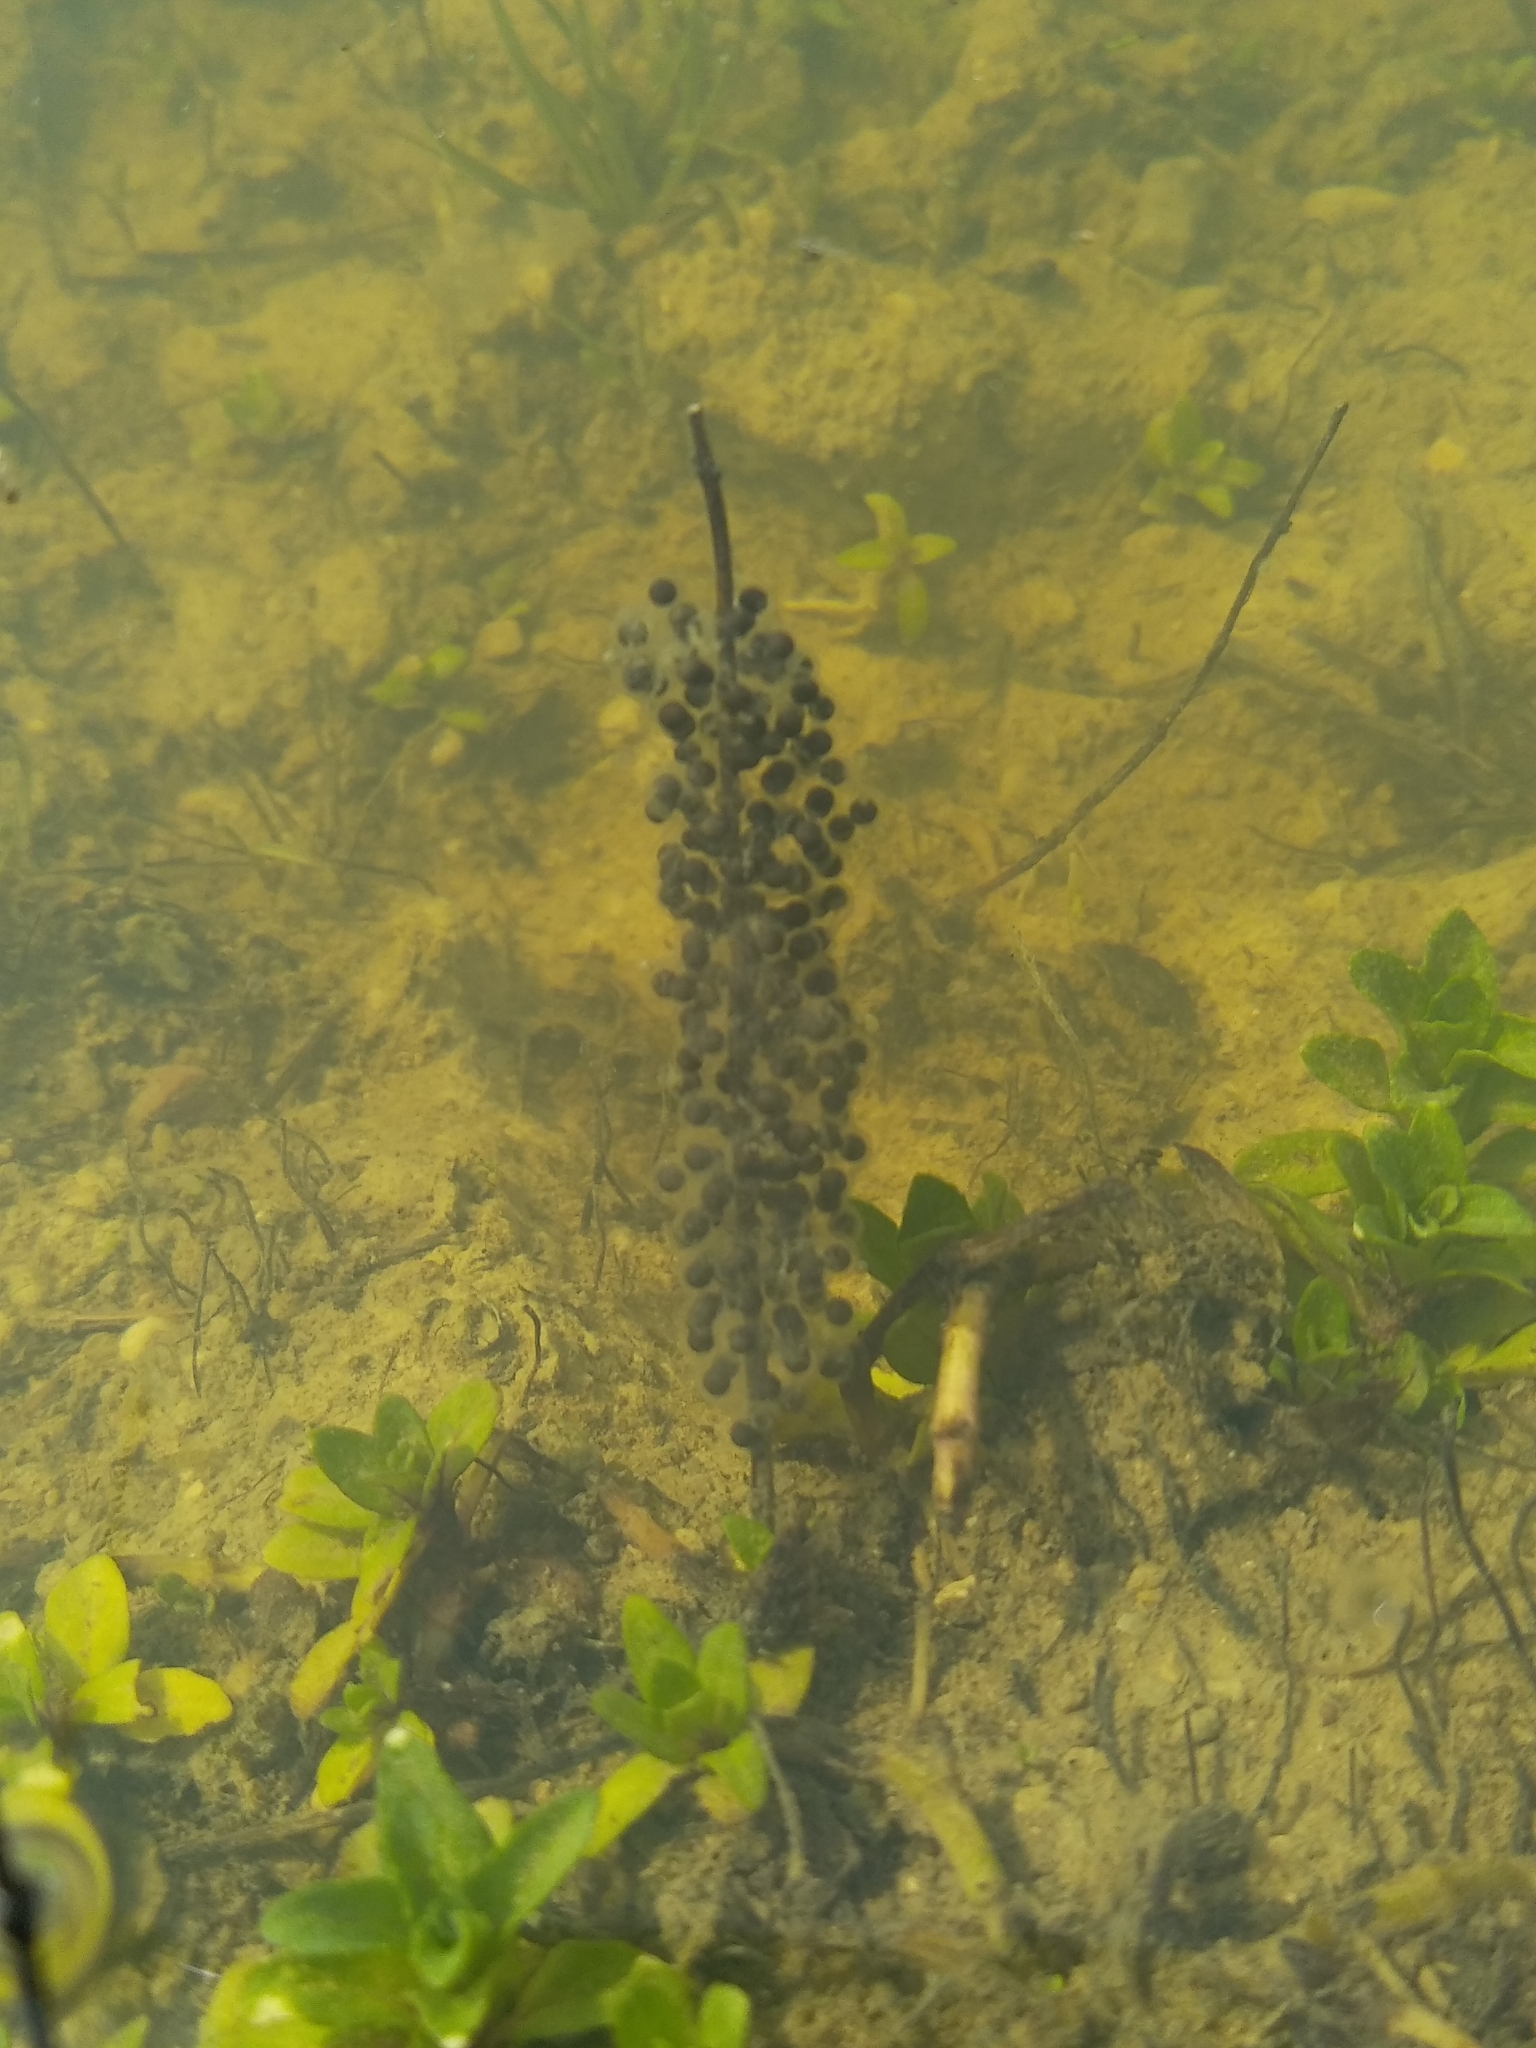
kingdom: Animalia
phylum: Chordata
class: Amphibia
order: Anura
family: Pelodytidae
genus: Pelodytes
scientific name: Pelodytes punctatus
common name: Parsley frog
